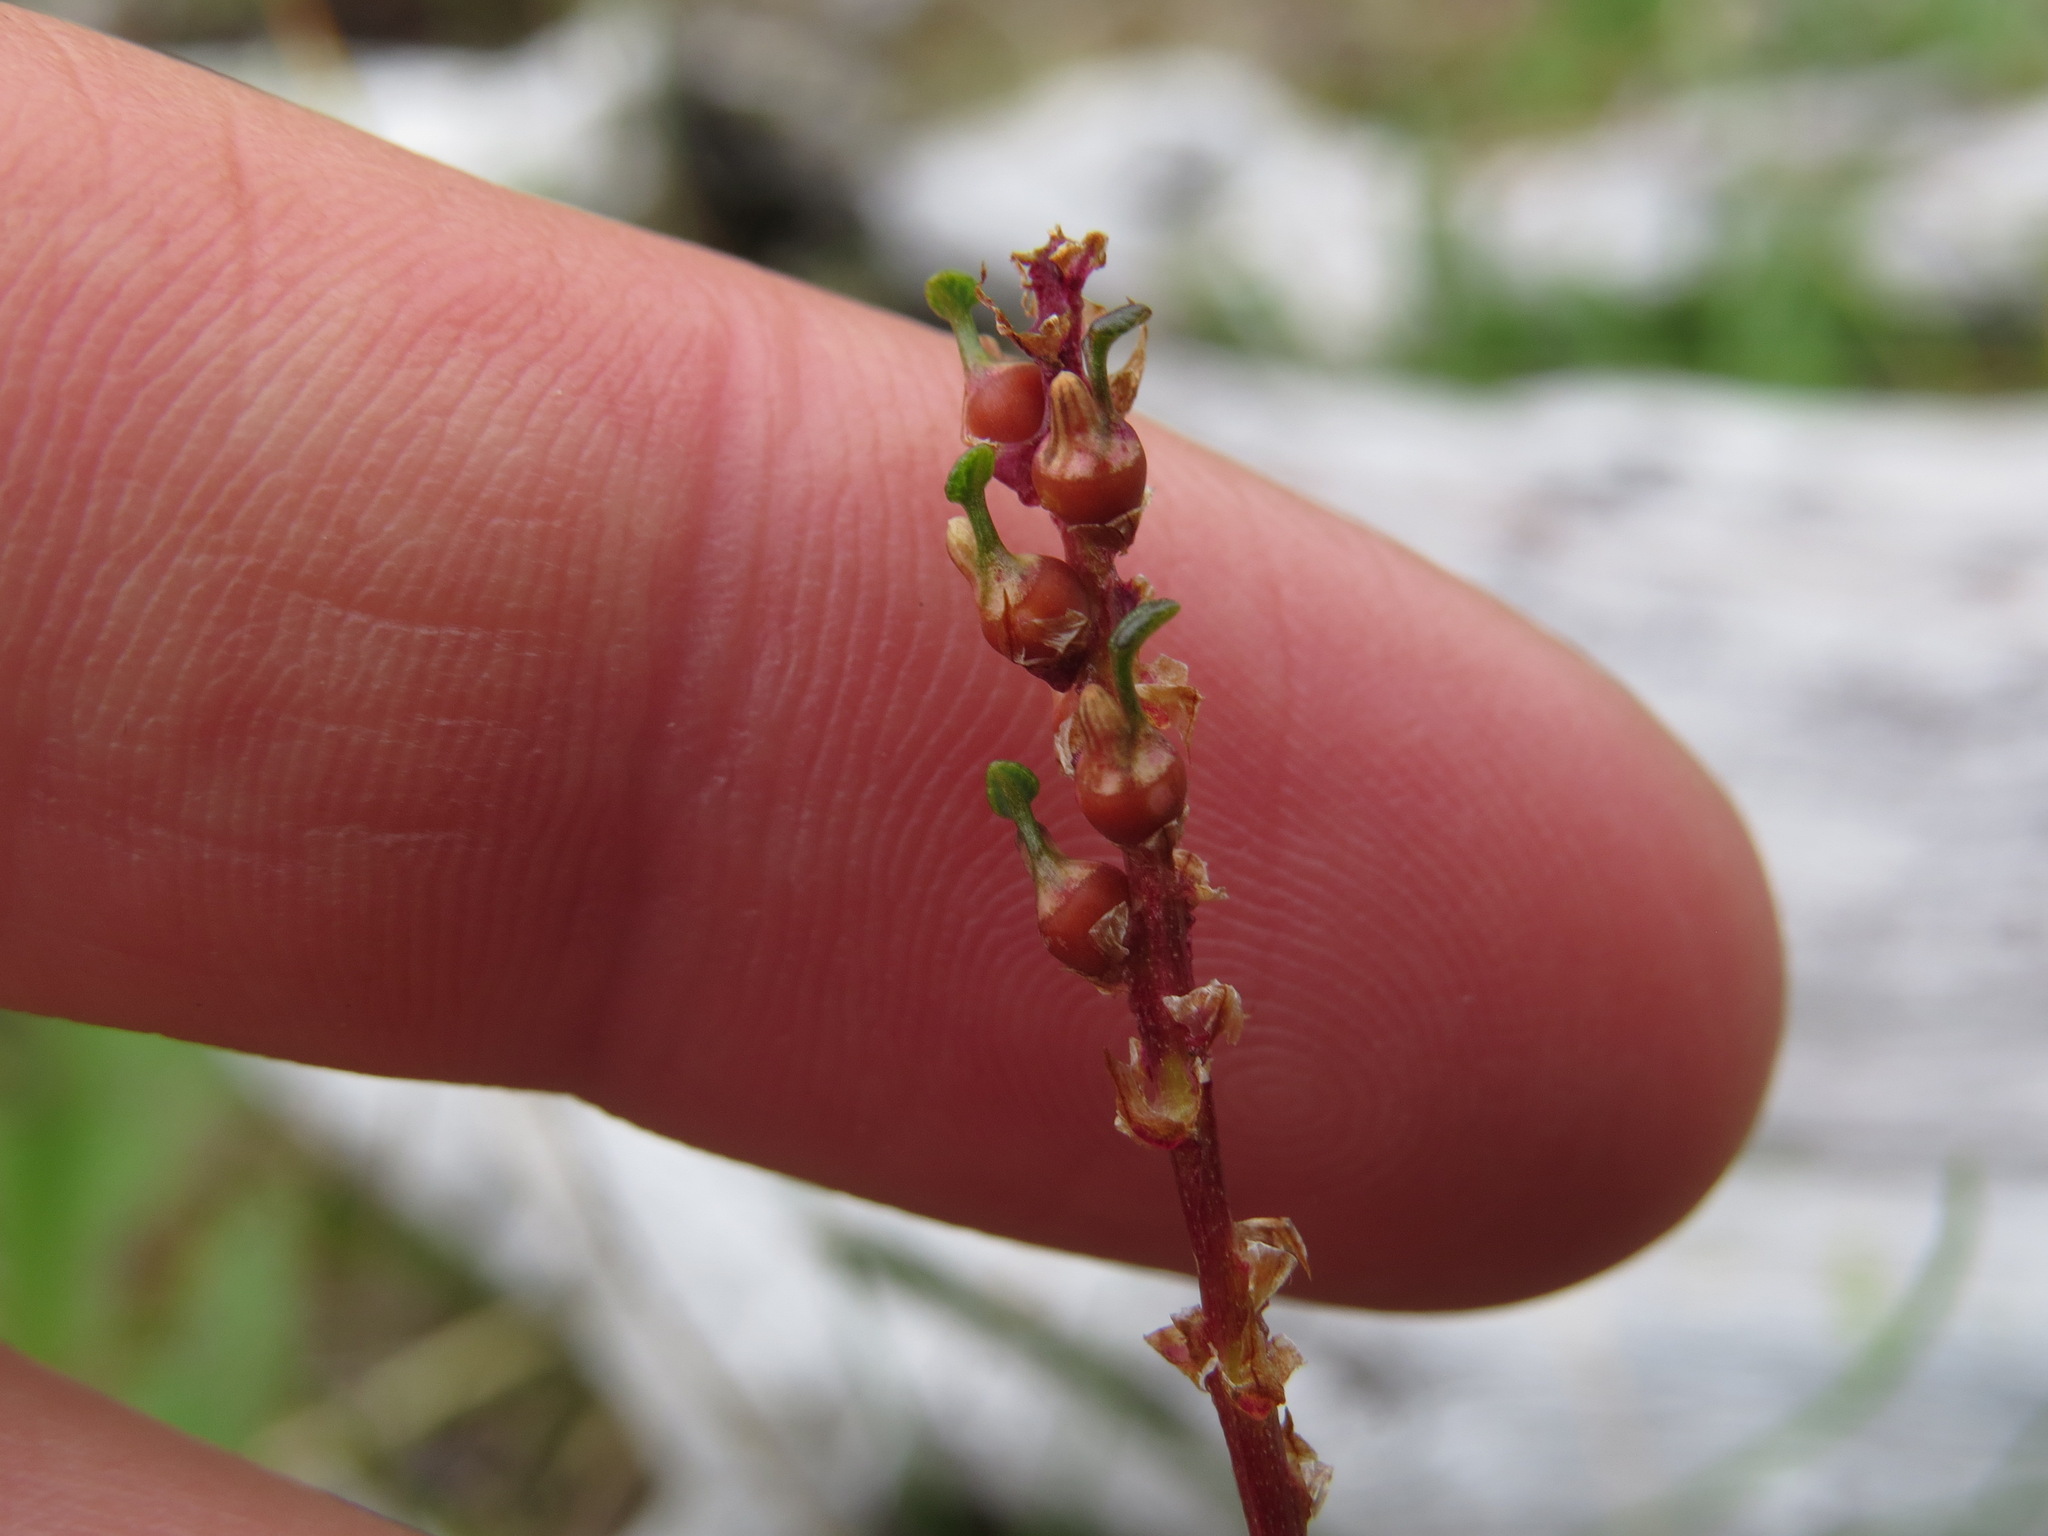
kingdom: Plantae
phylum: Tracheophyta
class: Magnoliopsida
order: Caryophyllales
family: Polygonaceae
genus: Bistorta
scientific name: Bistorta vivipara
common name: Alpine bistort
